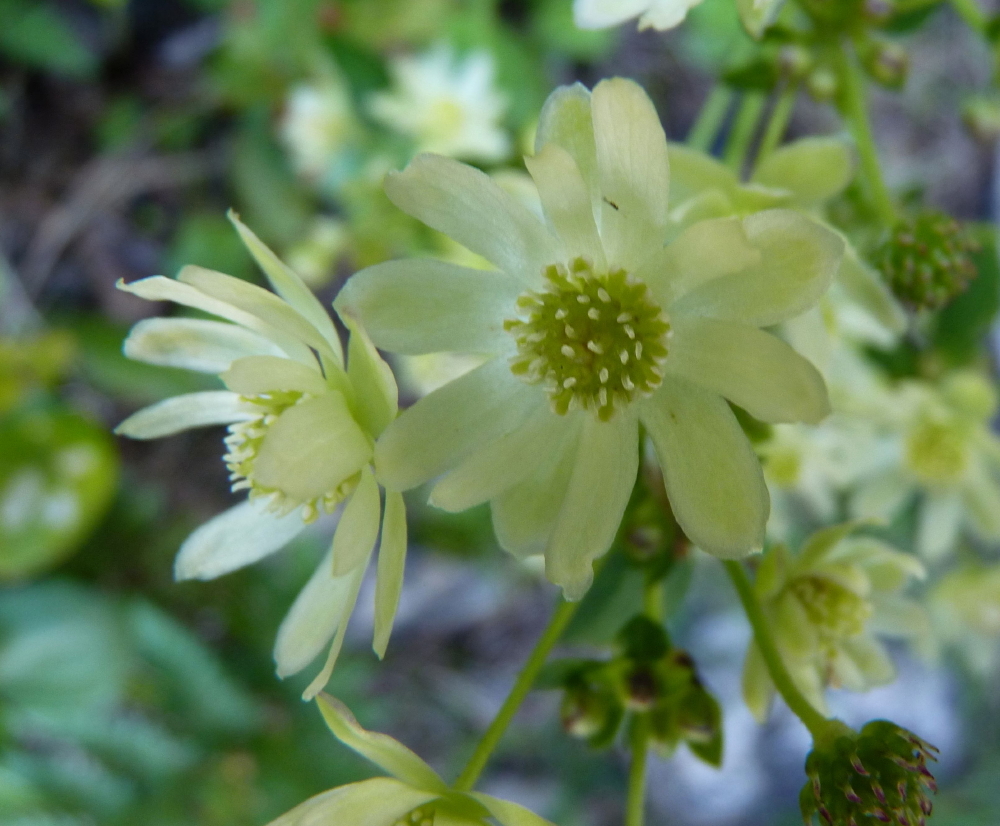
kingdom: Plantae
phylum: Tracheophyta
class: Magnoliopsida
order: Ranunculales
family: Ranunculaceae
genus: Knowltonia
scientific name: Knowltonia vesicatoria
